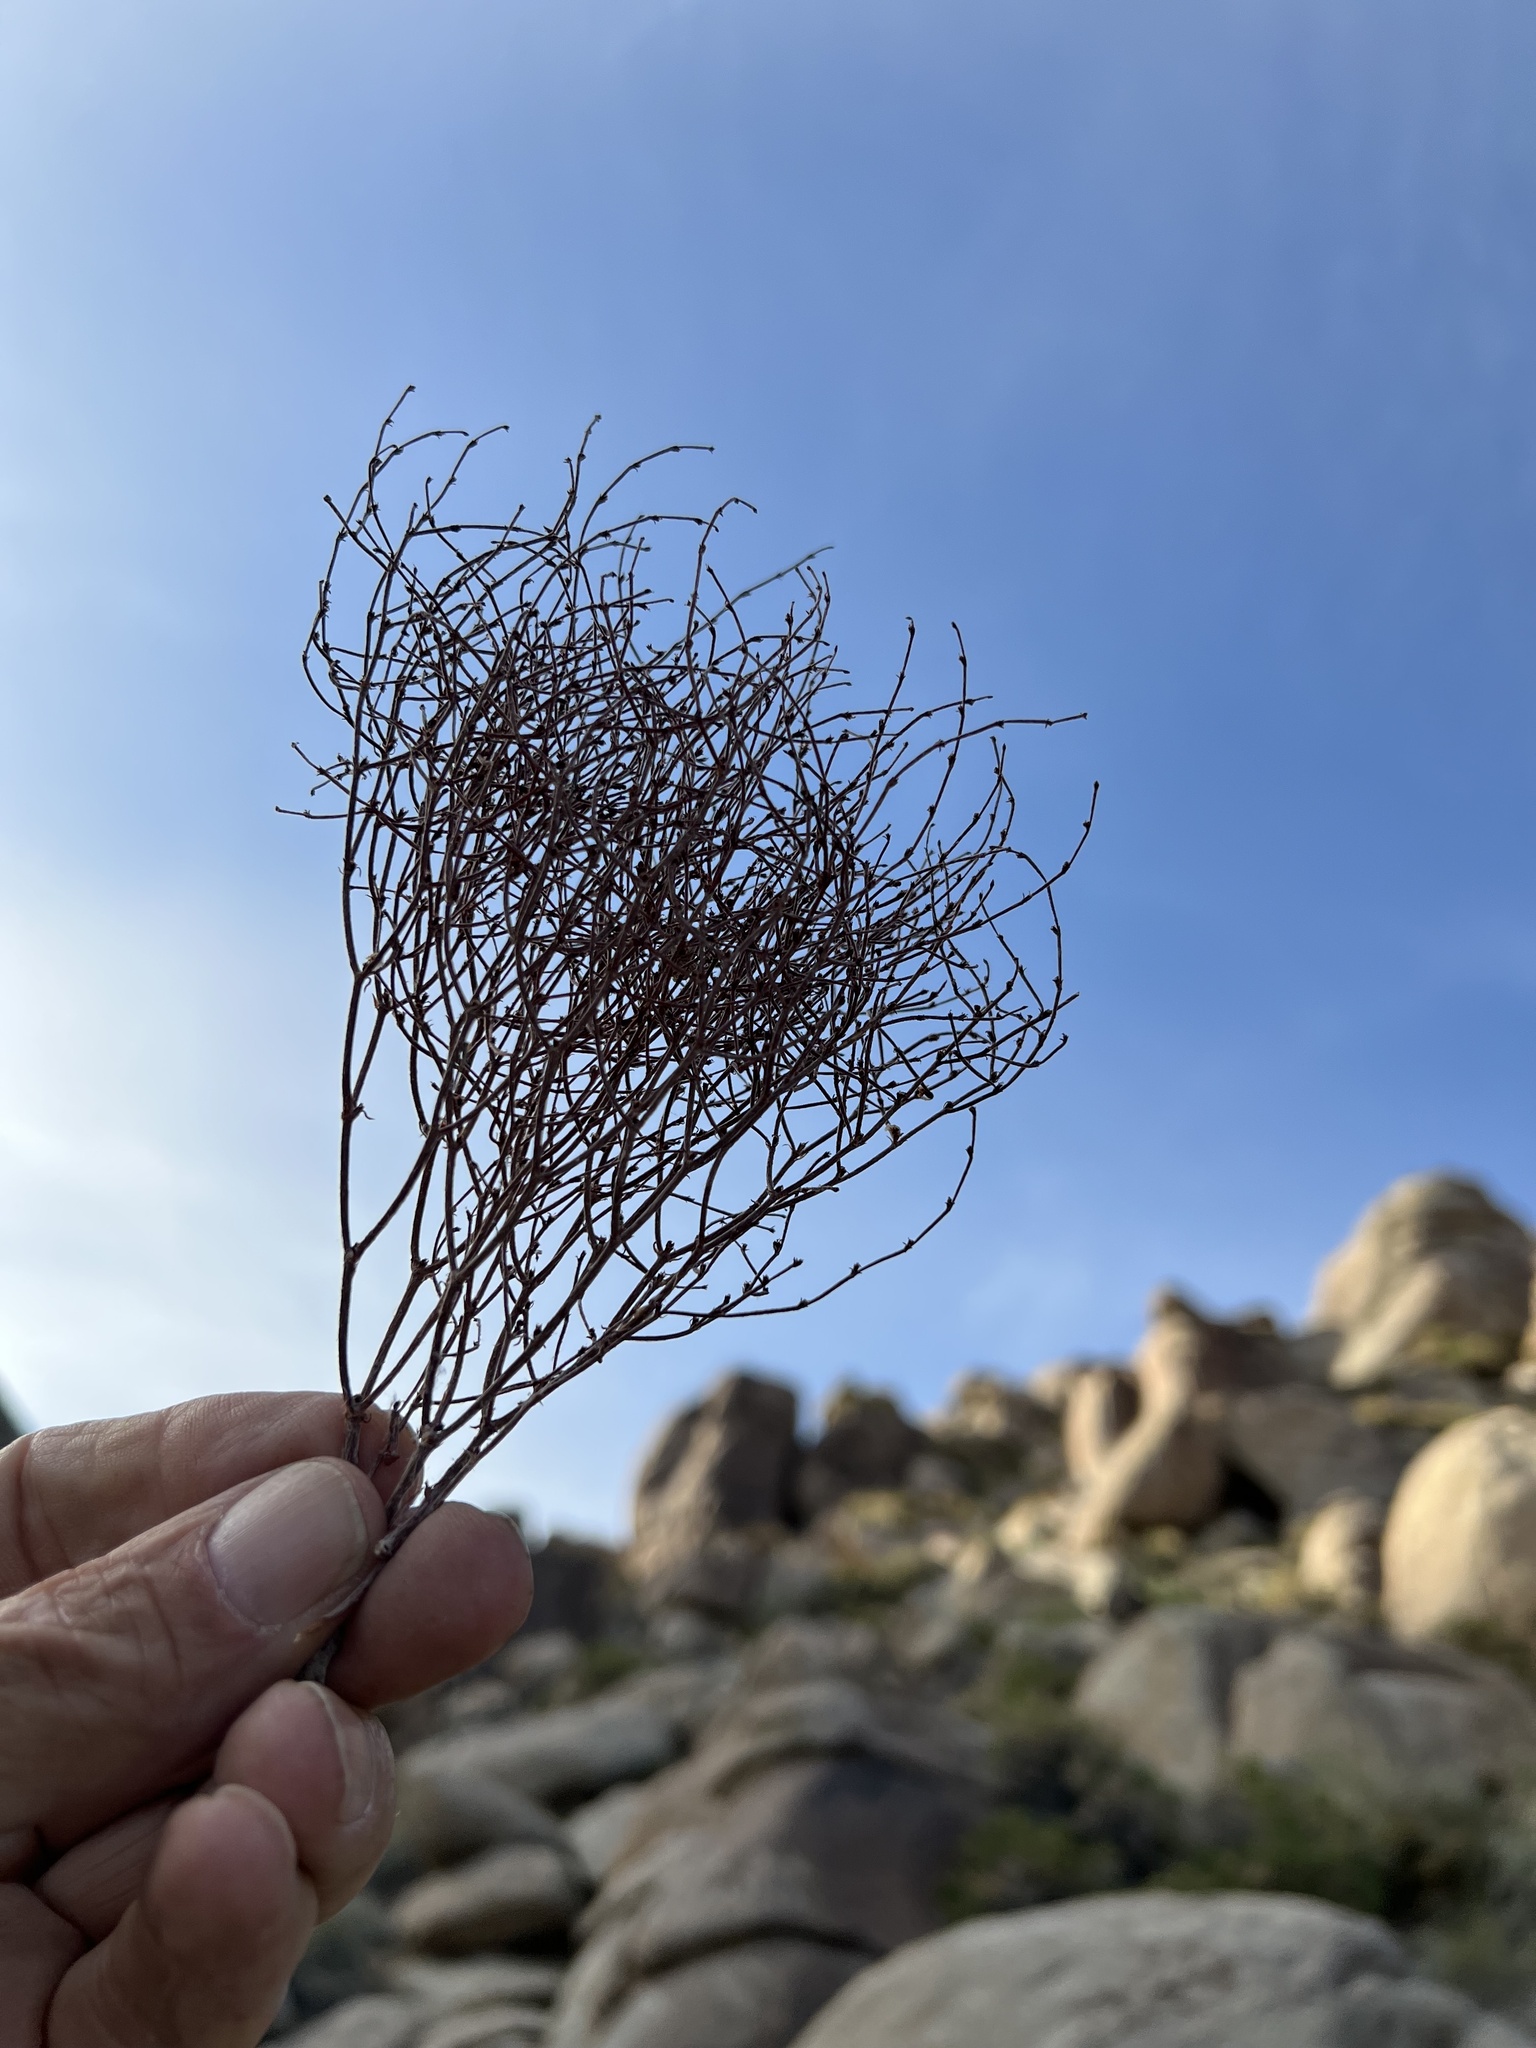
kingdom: Plantae
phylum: Tracheophyta
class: Magnoliopsida
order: Caryophyllales
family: Polygonaceae
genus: Eriogonum
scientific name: Eriogonum nidularium
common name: Bird's-nest wild buckwheat
